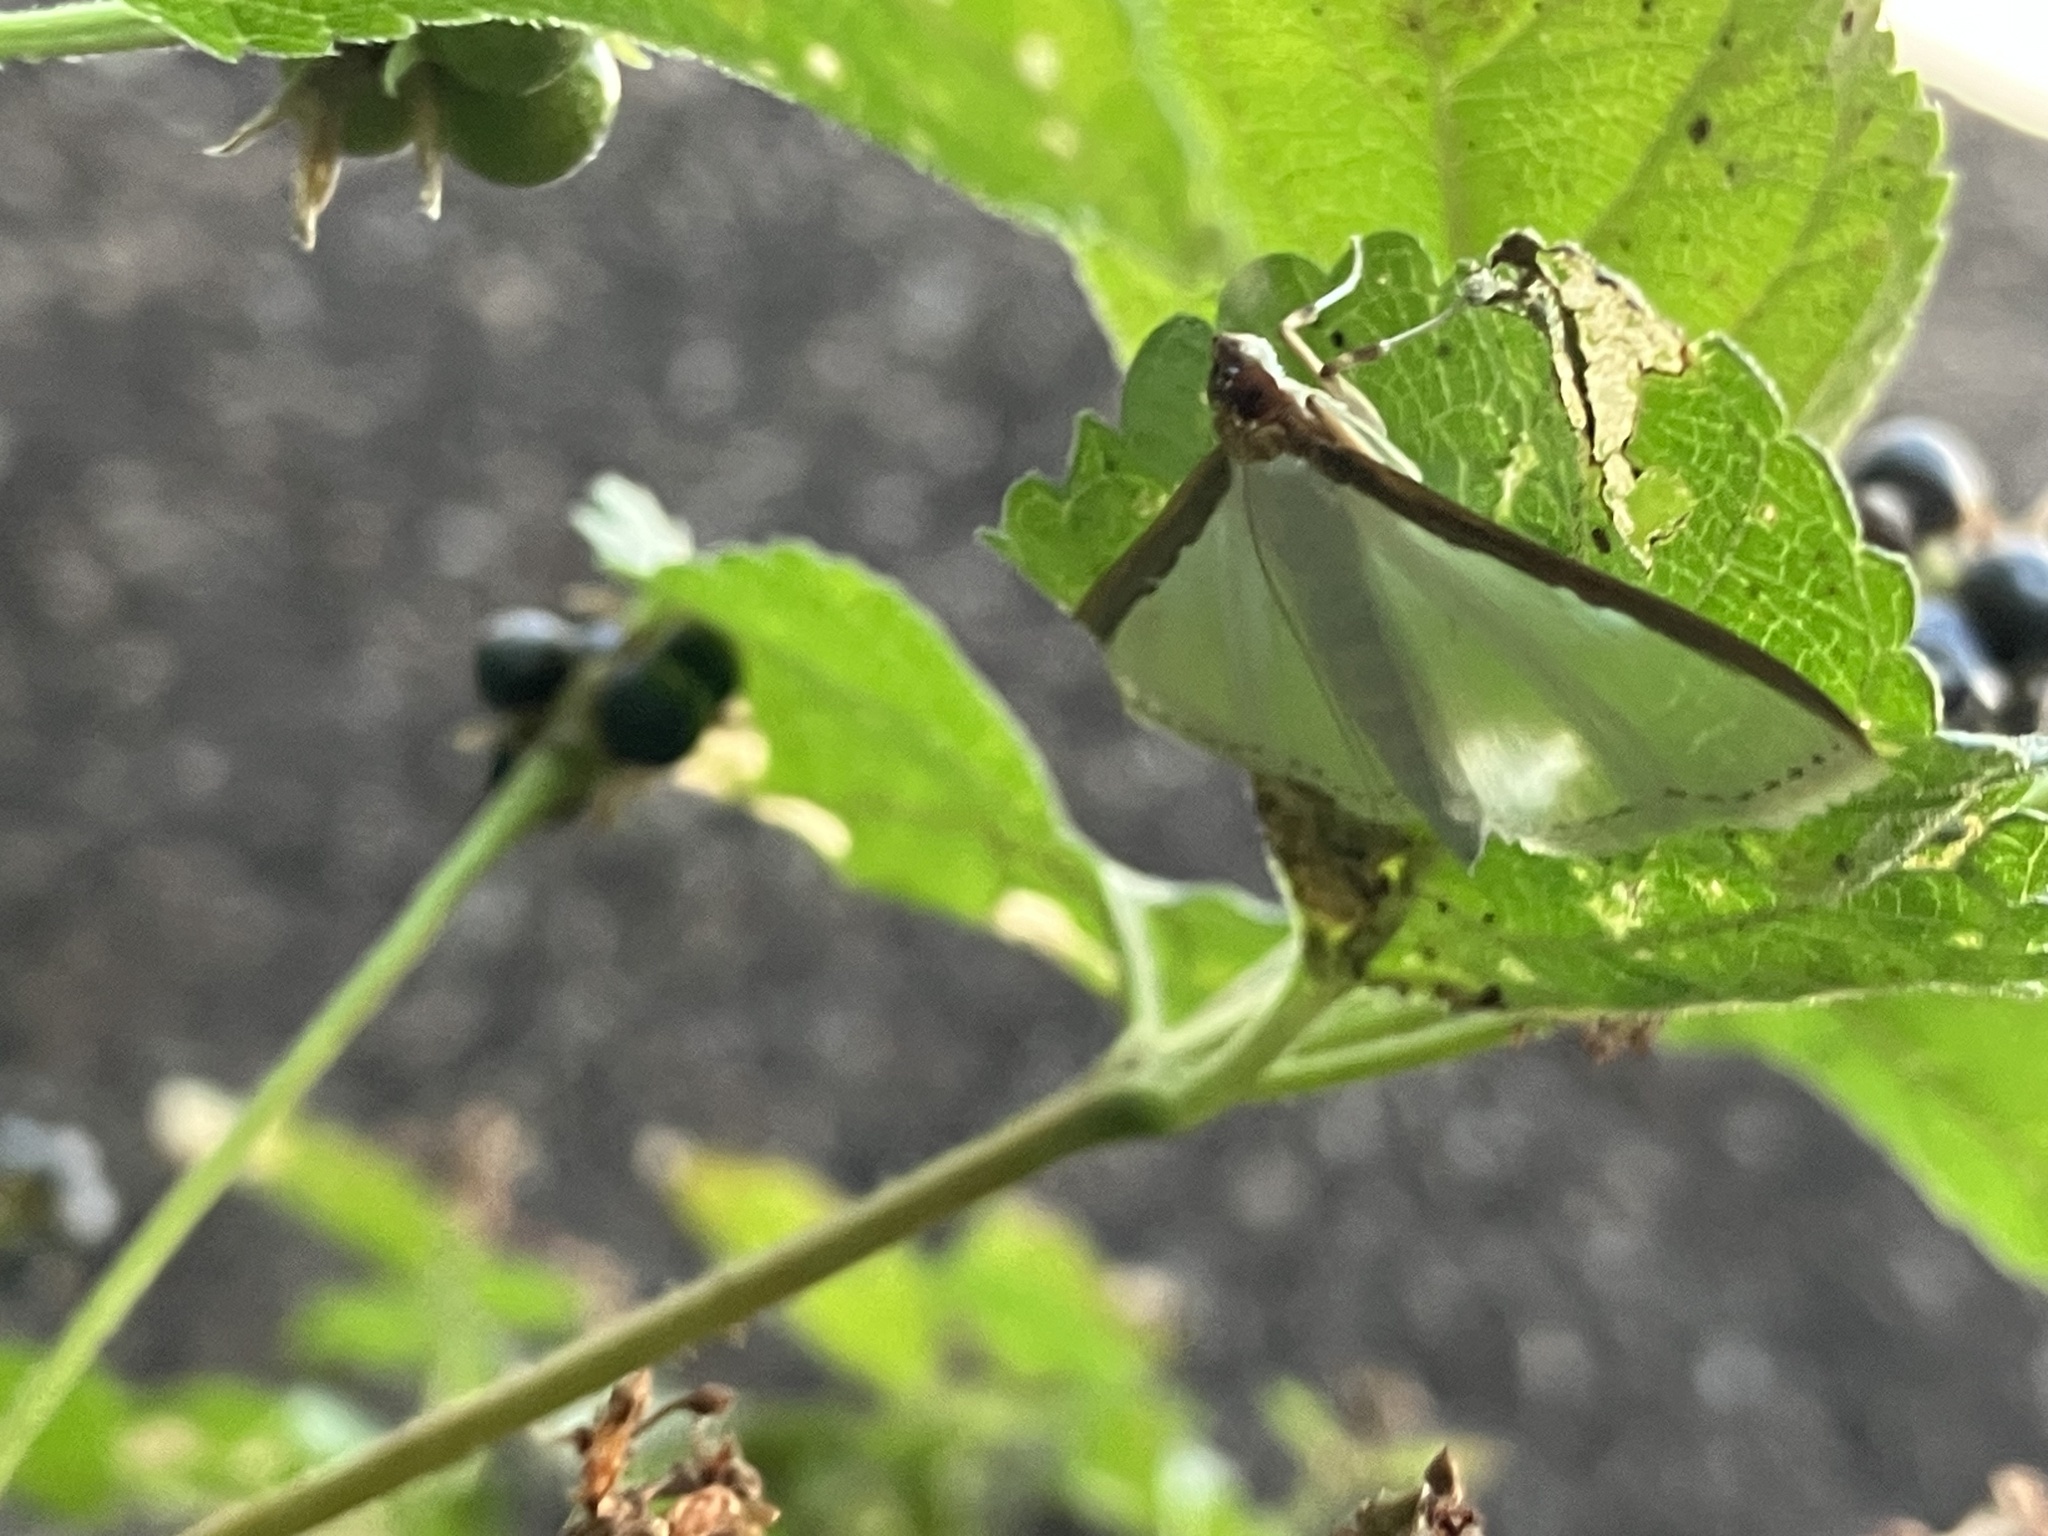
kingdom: Animalia
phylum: Arthropoda
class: Insecta
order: Lepidoptera
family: Crambidae
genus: Cydalima
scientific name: Cydalima laticostalis
